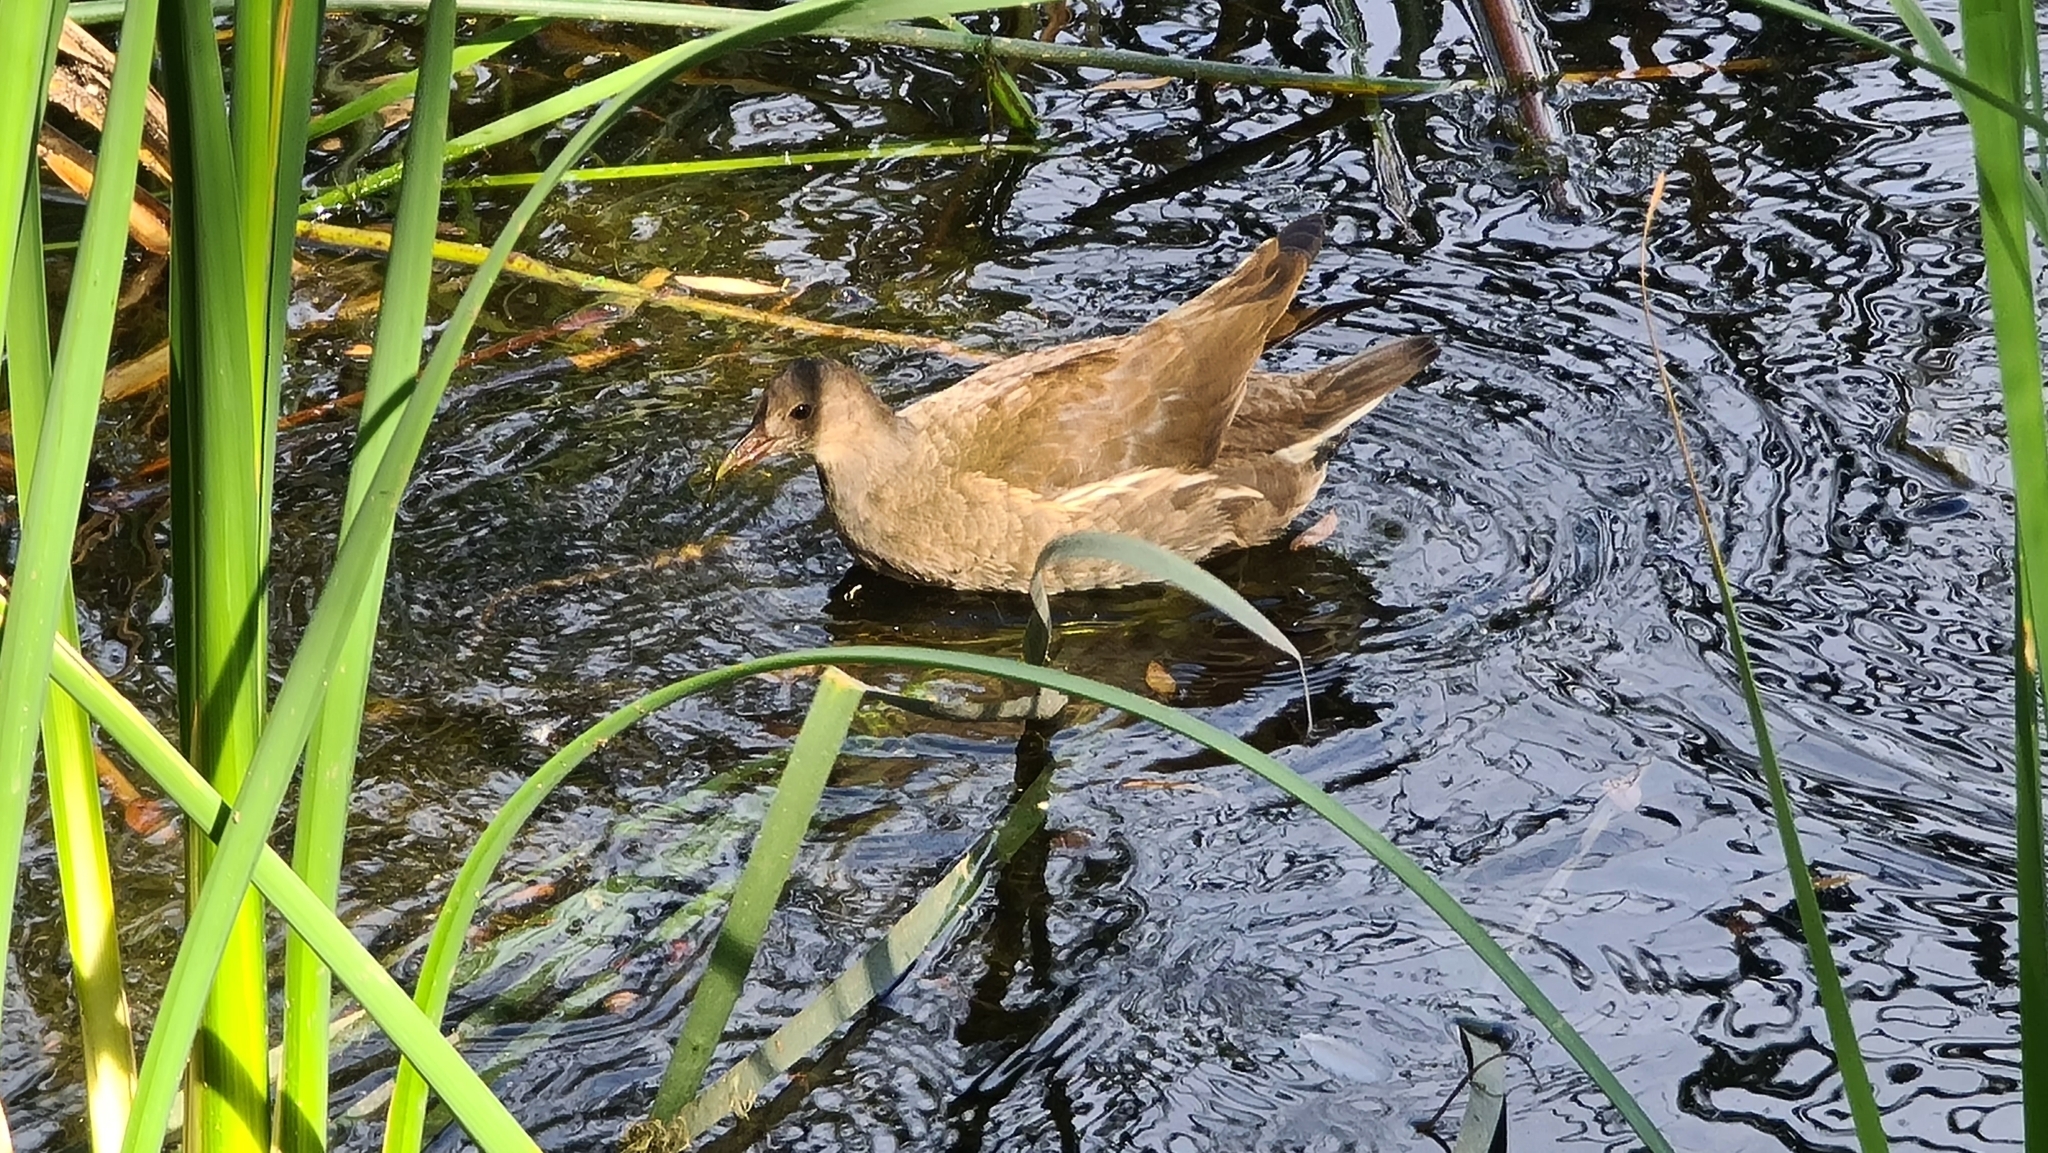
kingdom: Animalia
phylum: Chordata
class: Aves
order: Gruiformes
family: Rallidae
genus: Gallinula
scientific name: Gallinula chloropus
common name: Common moorhen
